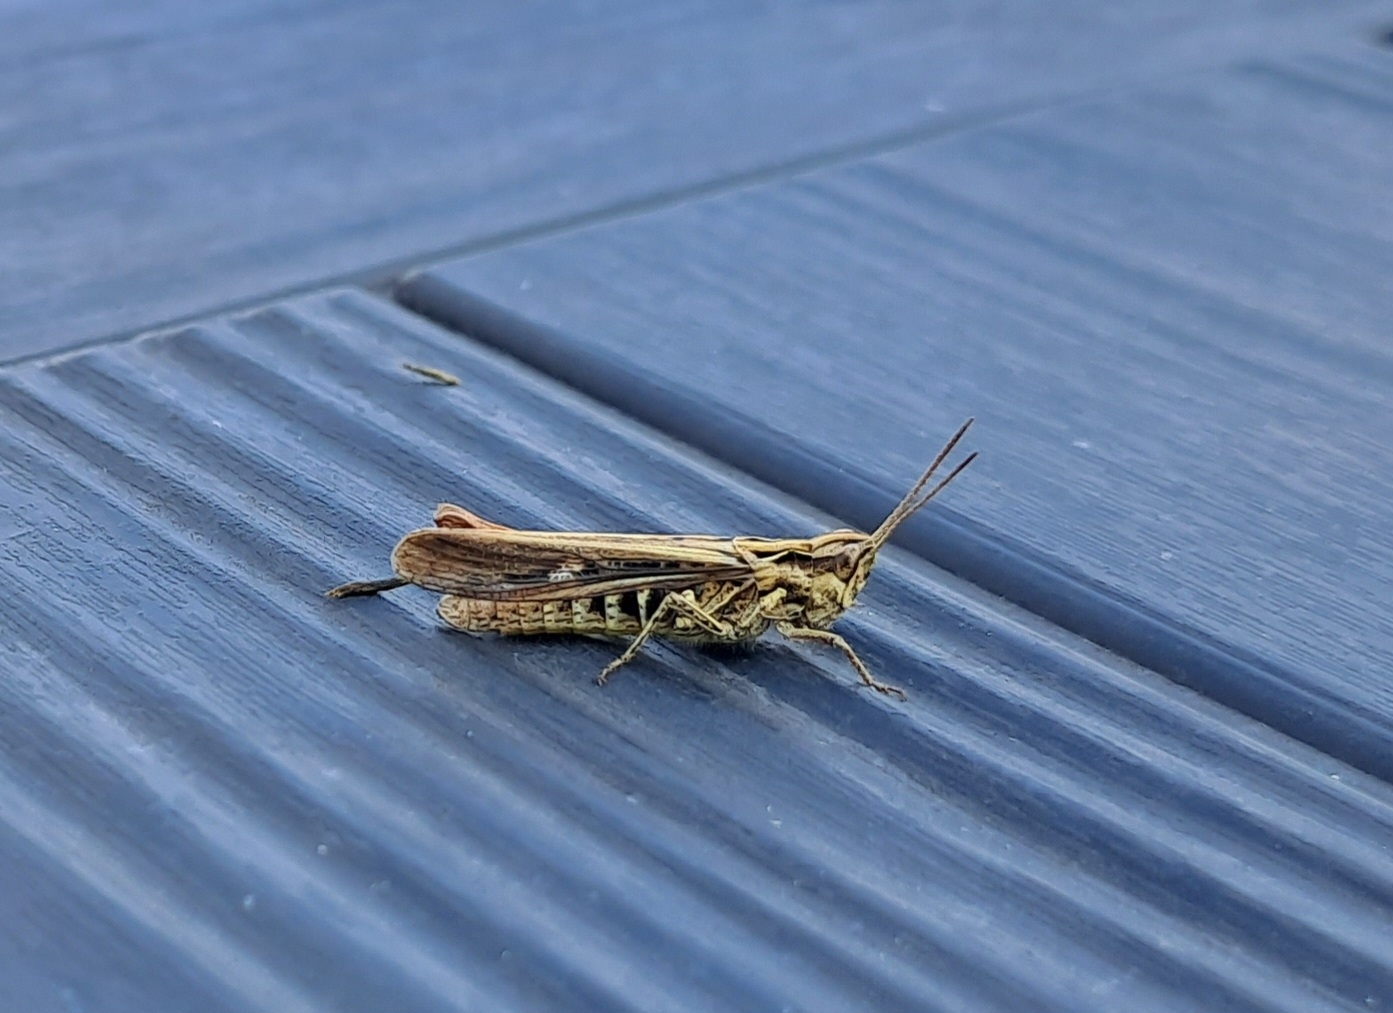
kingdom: Animalia
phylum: Arthropoda
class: Insecta
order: Orthoptera
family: Acrididae
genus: Chorthippus
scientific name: Chorthippus brunneus
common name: Field grasshopper
